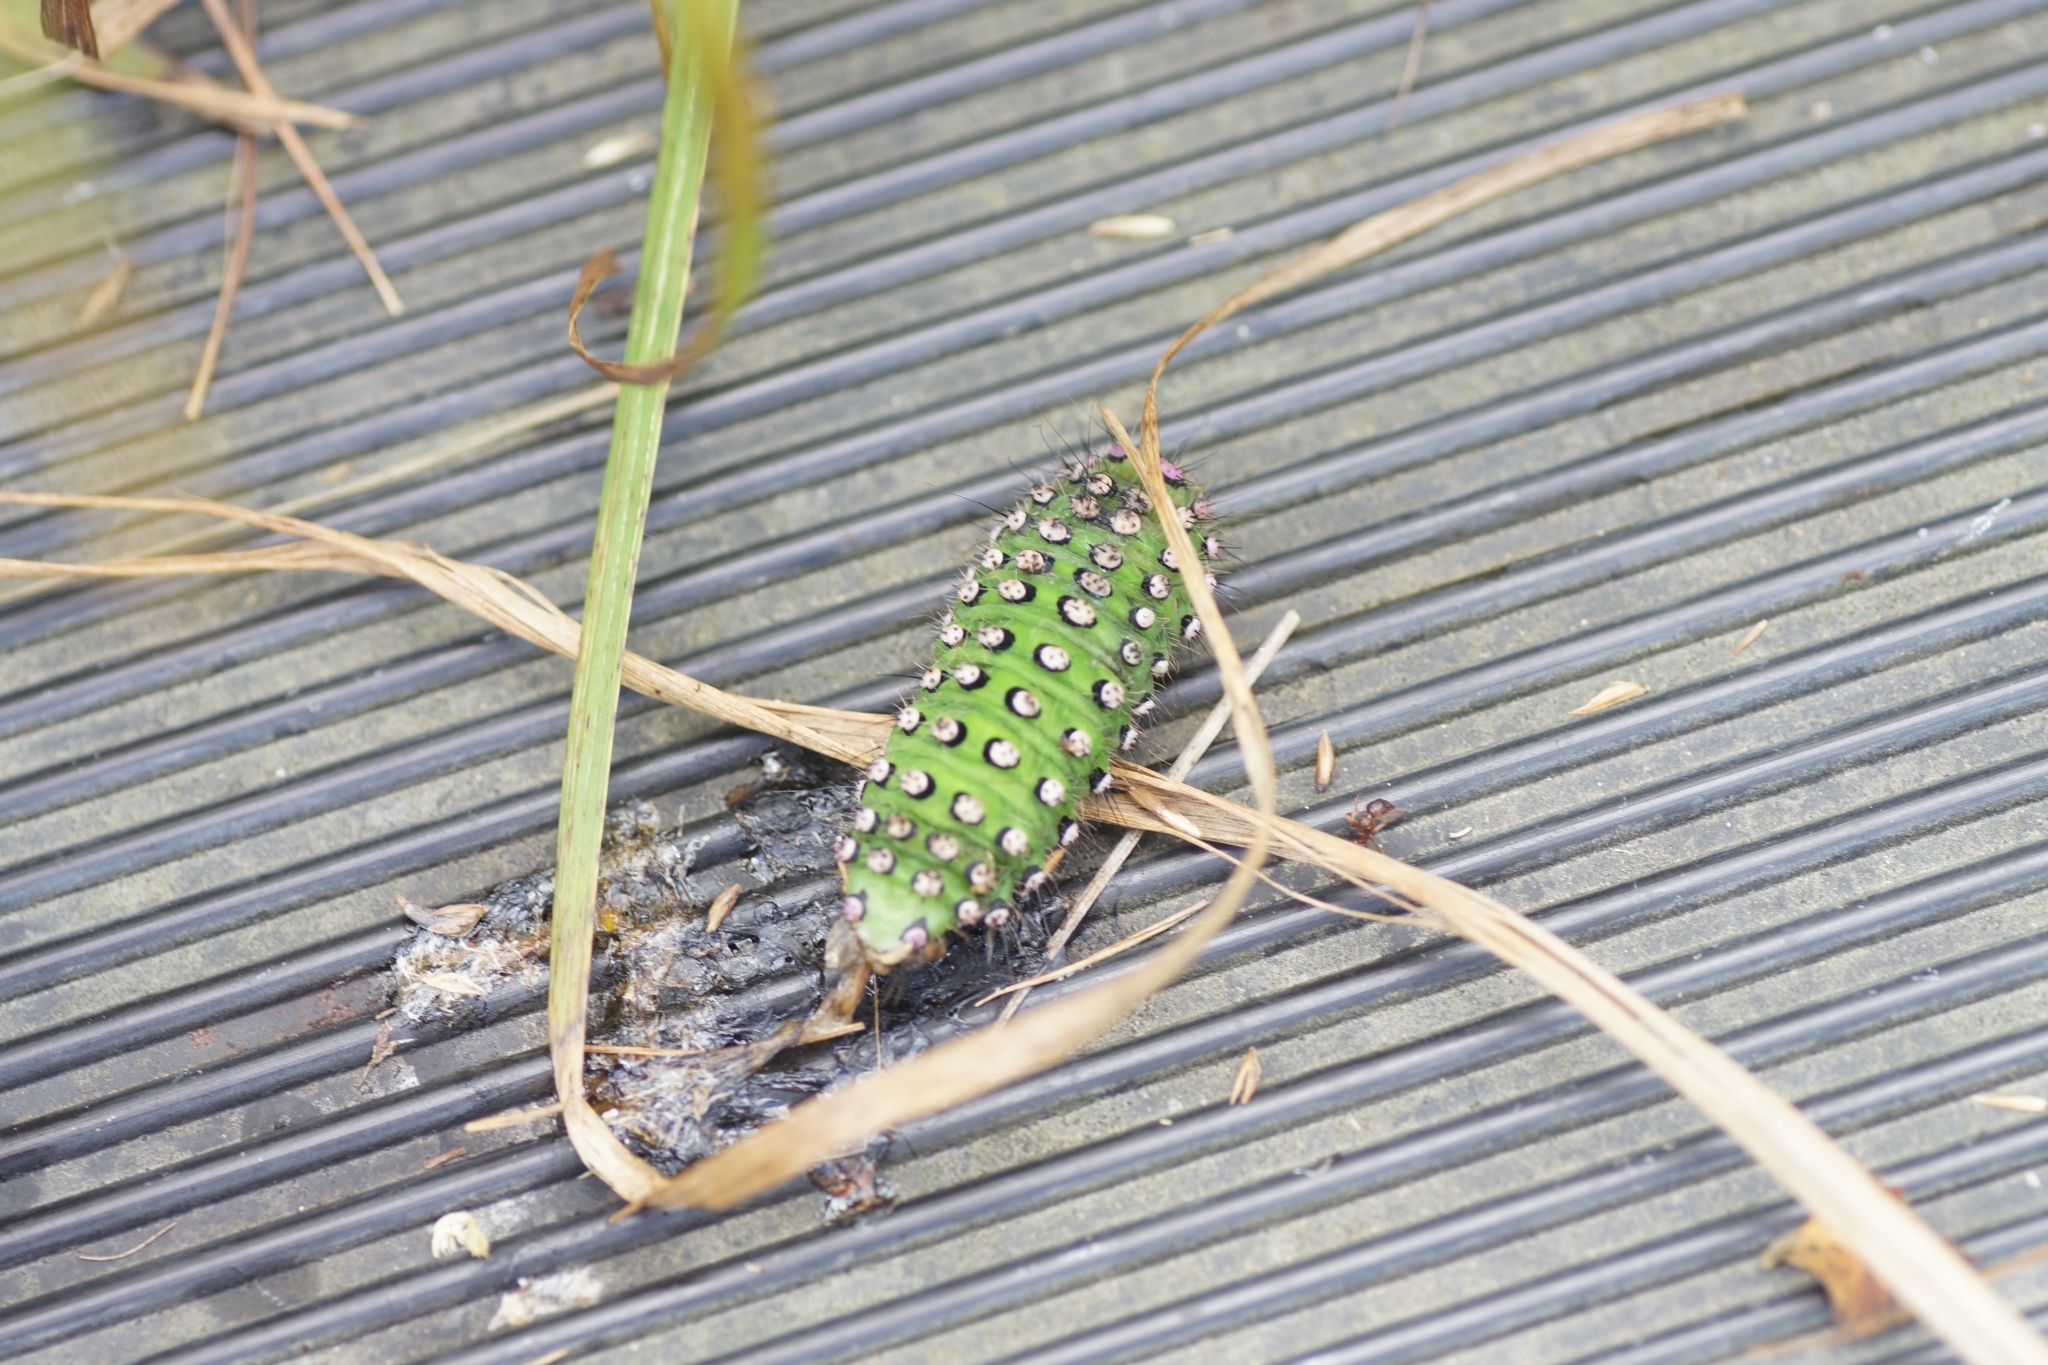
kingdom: Animalia
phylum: Arthropoda
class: Insecta
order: Lepidoptera
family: Saturniidae
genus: Saturnia
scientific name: Saturnia pavonia
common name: Emperor moth
